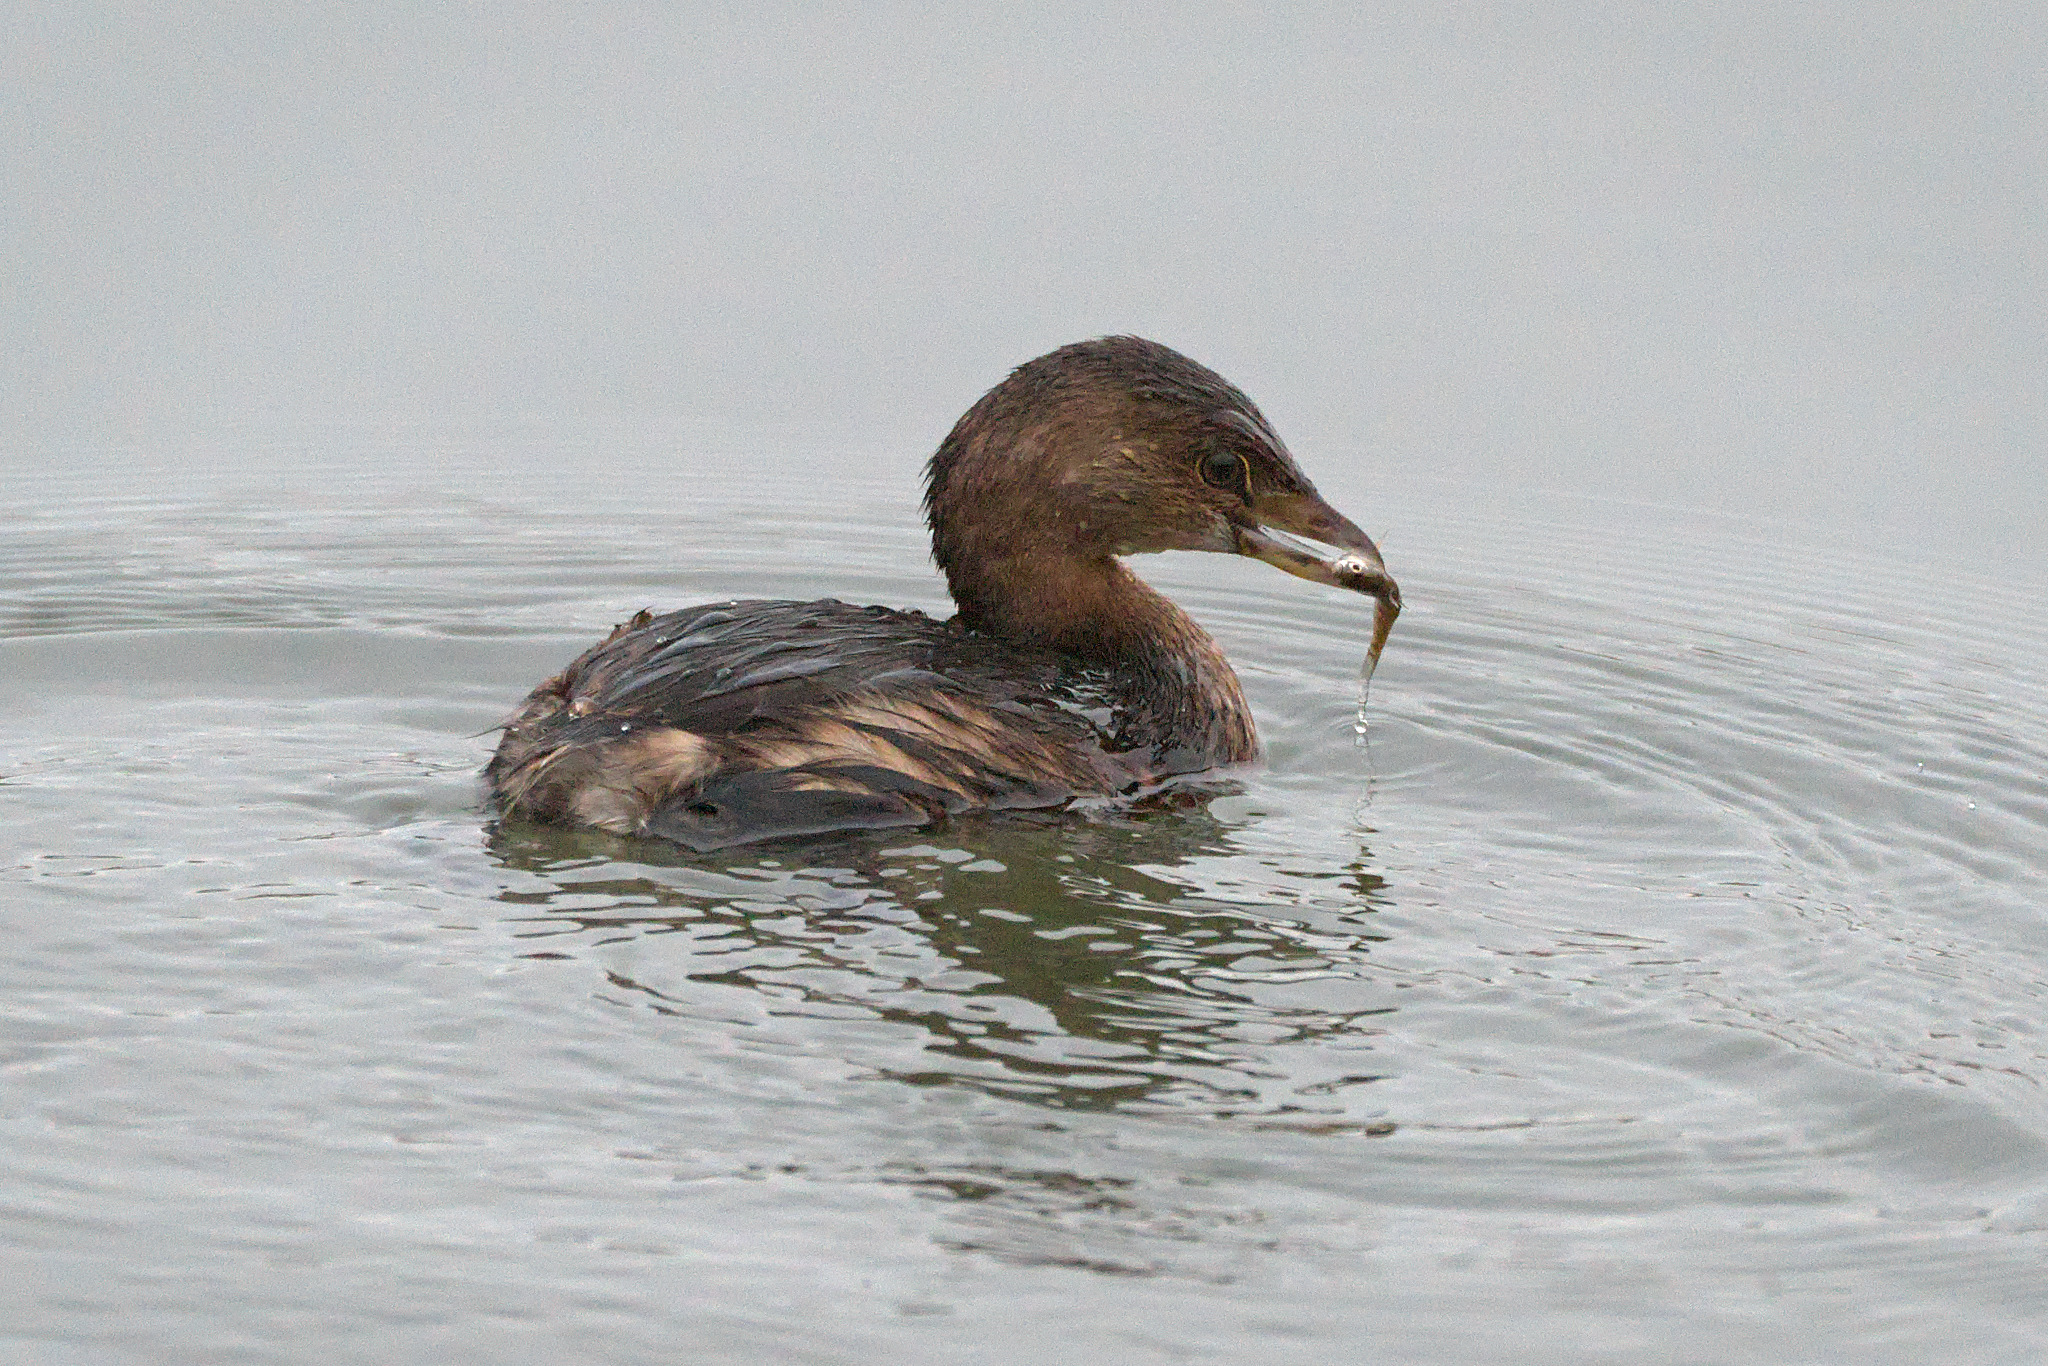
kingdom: Animalia
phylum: Chordata
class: Aves
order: Podicipediformes
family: Podicipedidae
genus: Podilymbus
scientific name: Podilymbus podiceps
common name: Pied-billed grebe
